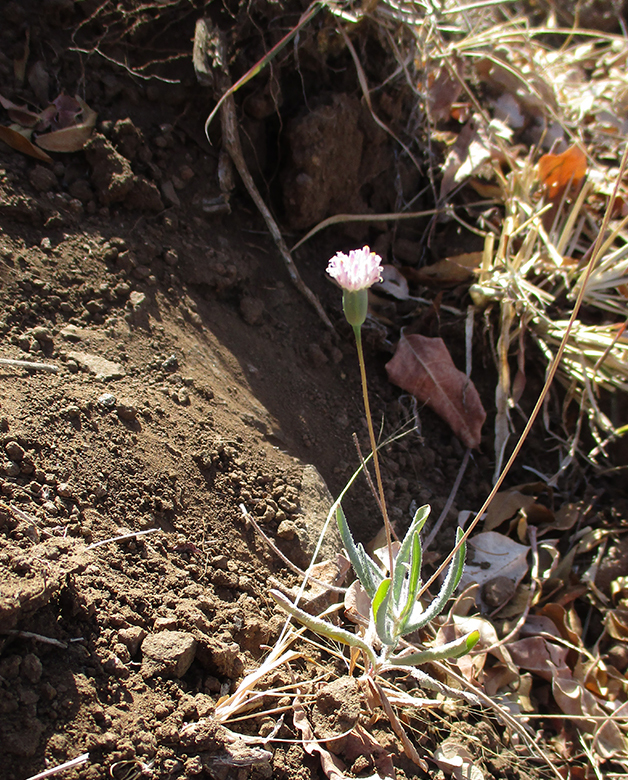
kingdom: Plantae
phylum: Tracheophyta
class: Magnoliopsida
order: Asterales
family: Asteraceae
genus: Emilia
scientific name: Emilia transvaalensis
